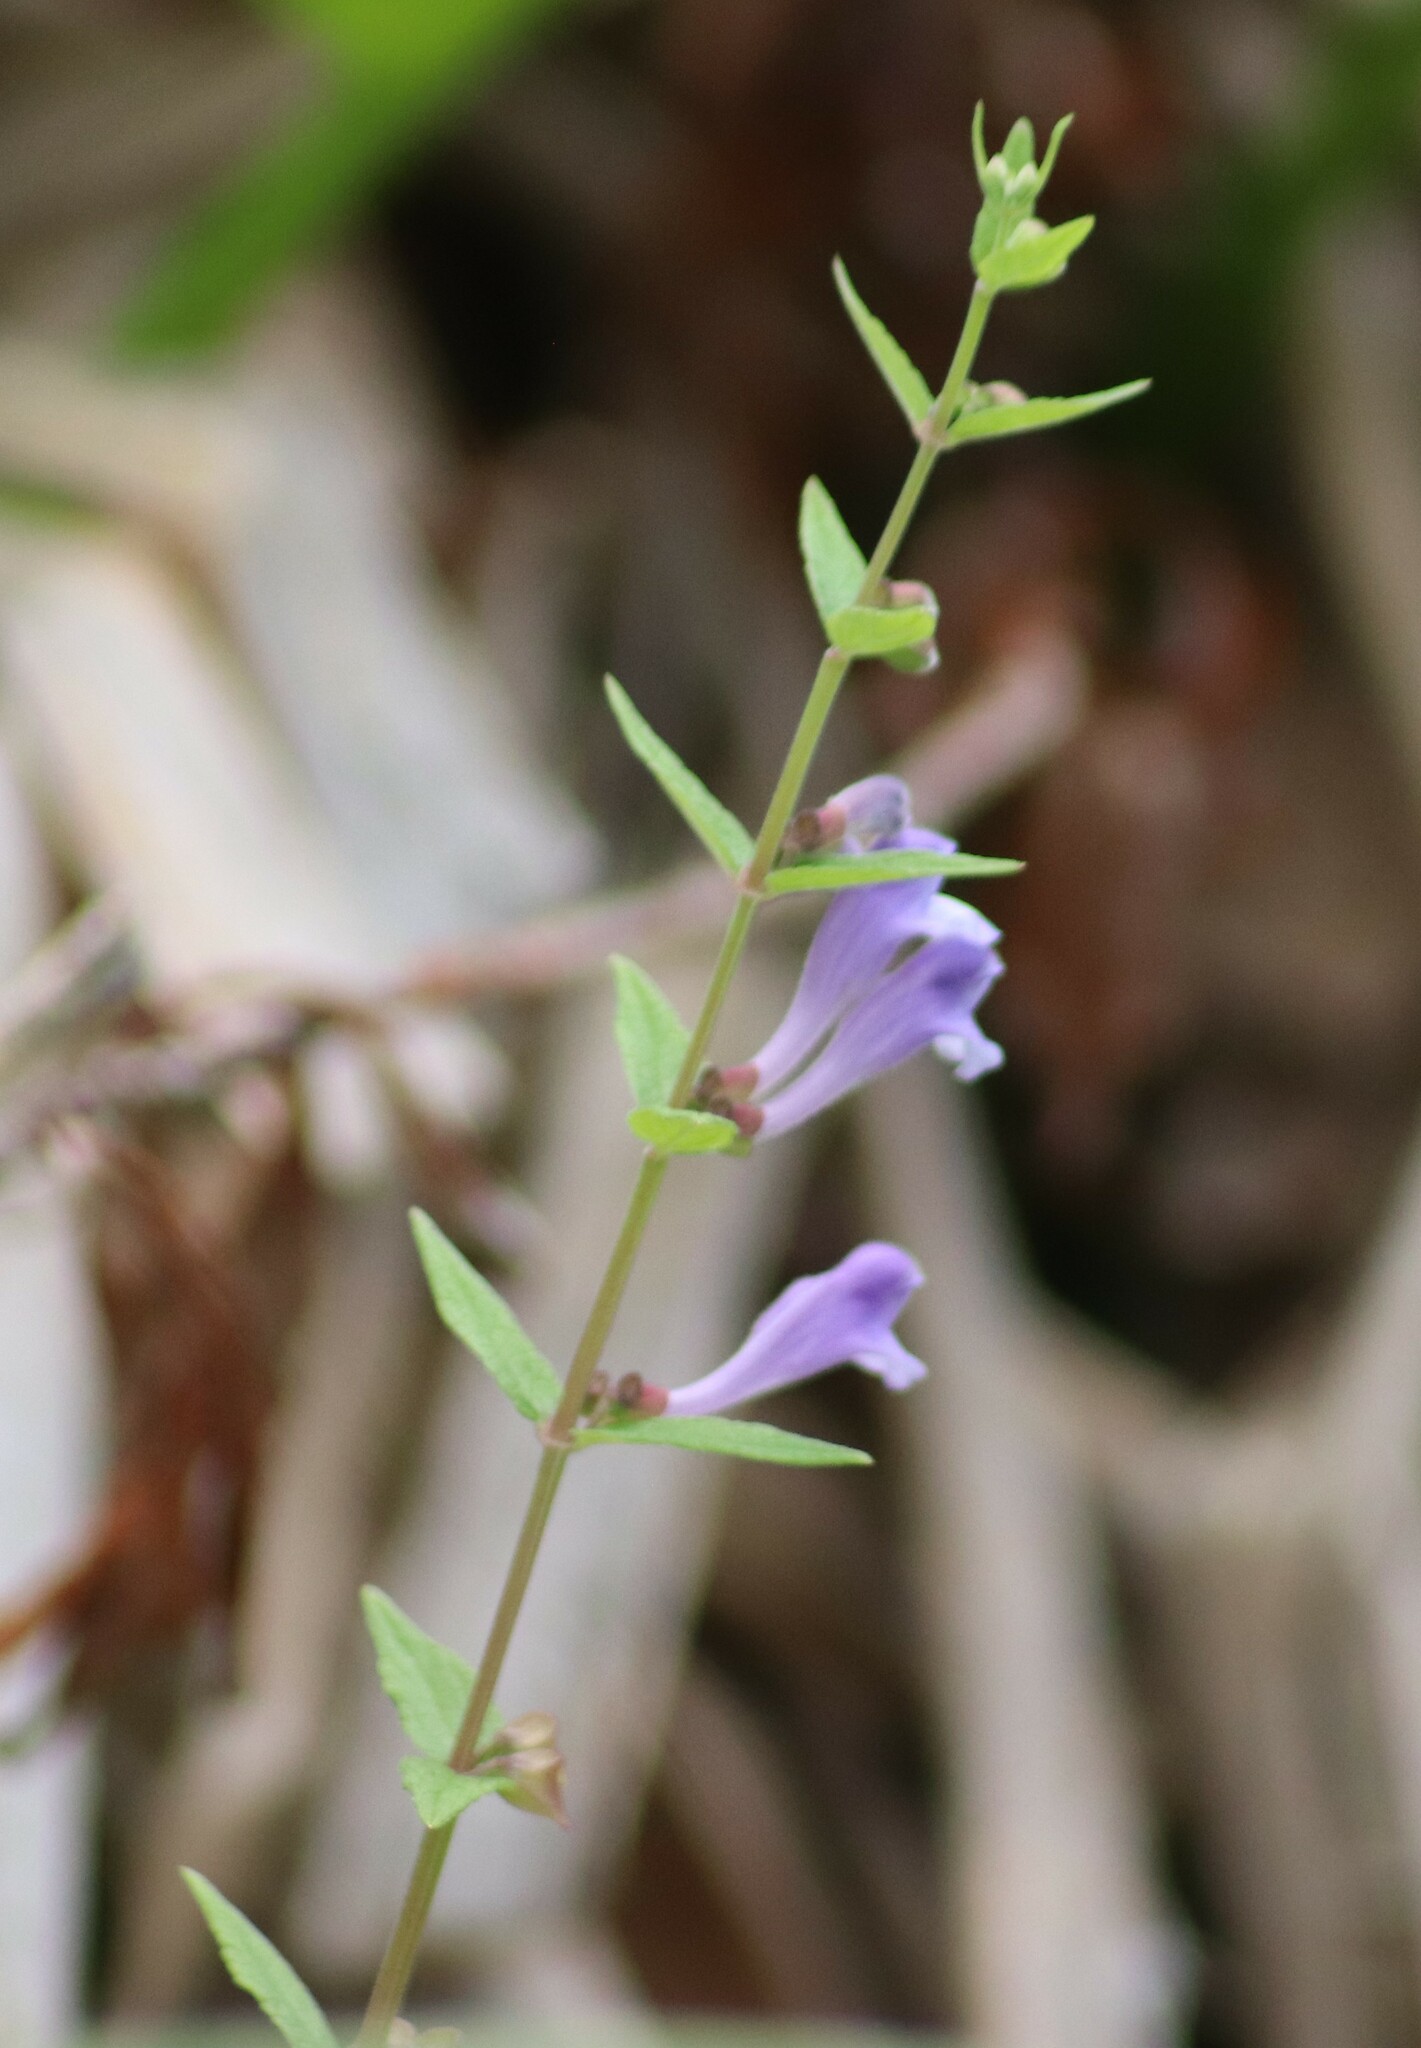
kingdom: Plantae
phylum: Tracheophyta
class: Magnoliopsida
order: Lamiales
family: Lamiaceae
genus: Scutellaria
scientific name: Scutellaria galericulata
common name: Skullcap
